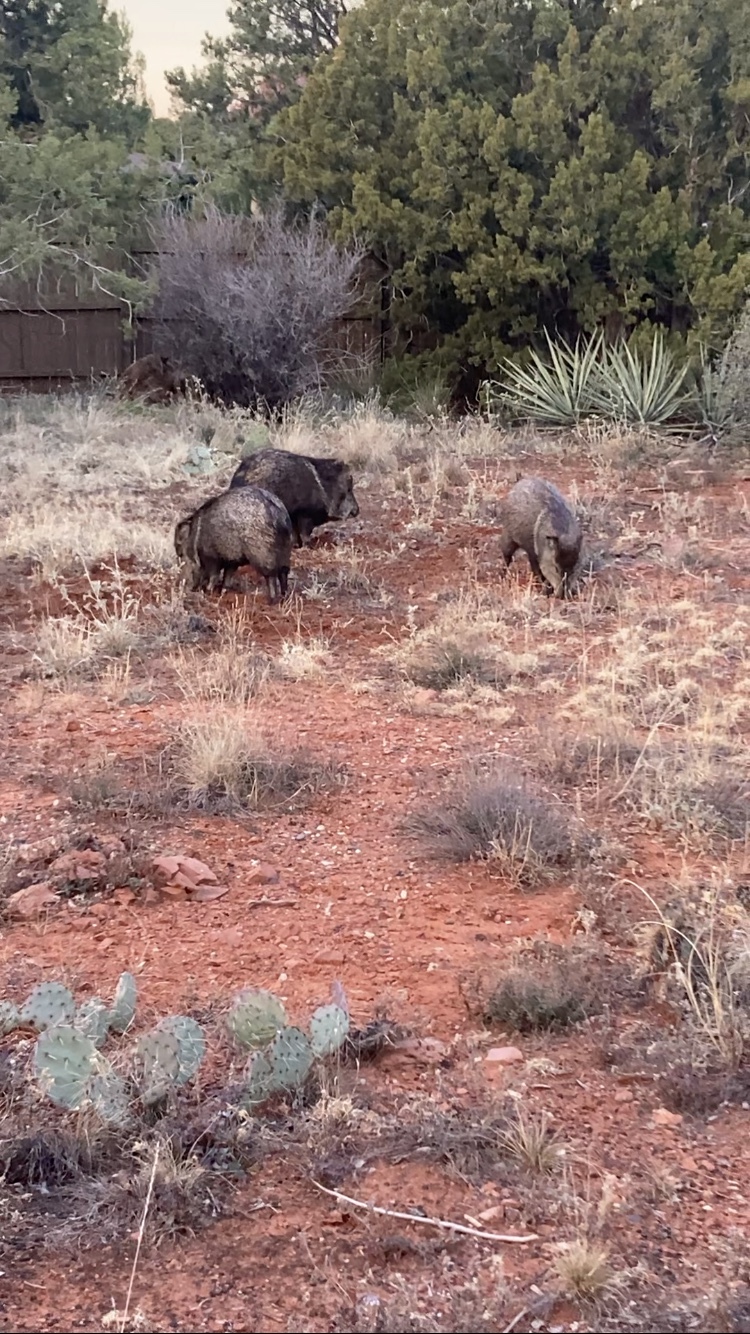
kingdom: Animalia
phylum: Chordata
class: Mammalia
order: Artiodactyla
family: Tayassuidae
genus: Pecari
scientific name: Pecari tajacu
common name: Collared peccary
